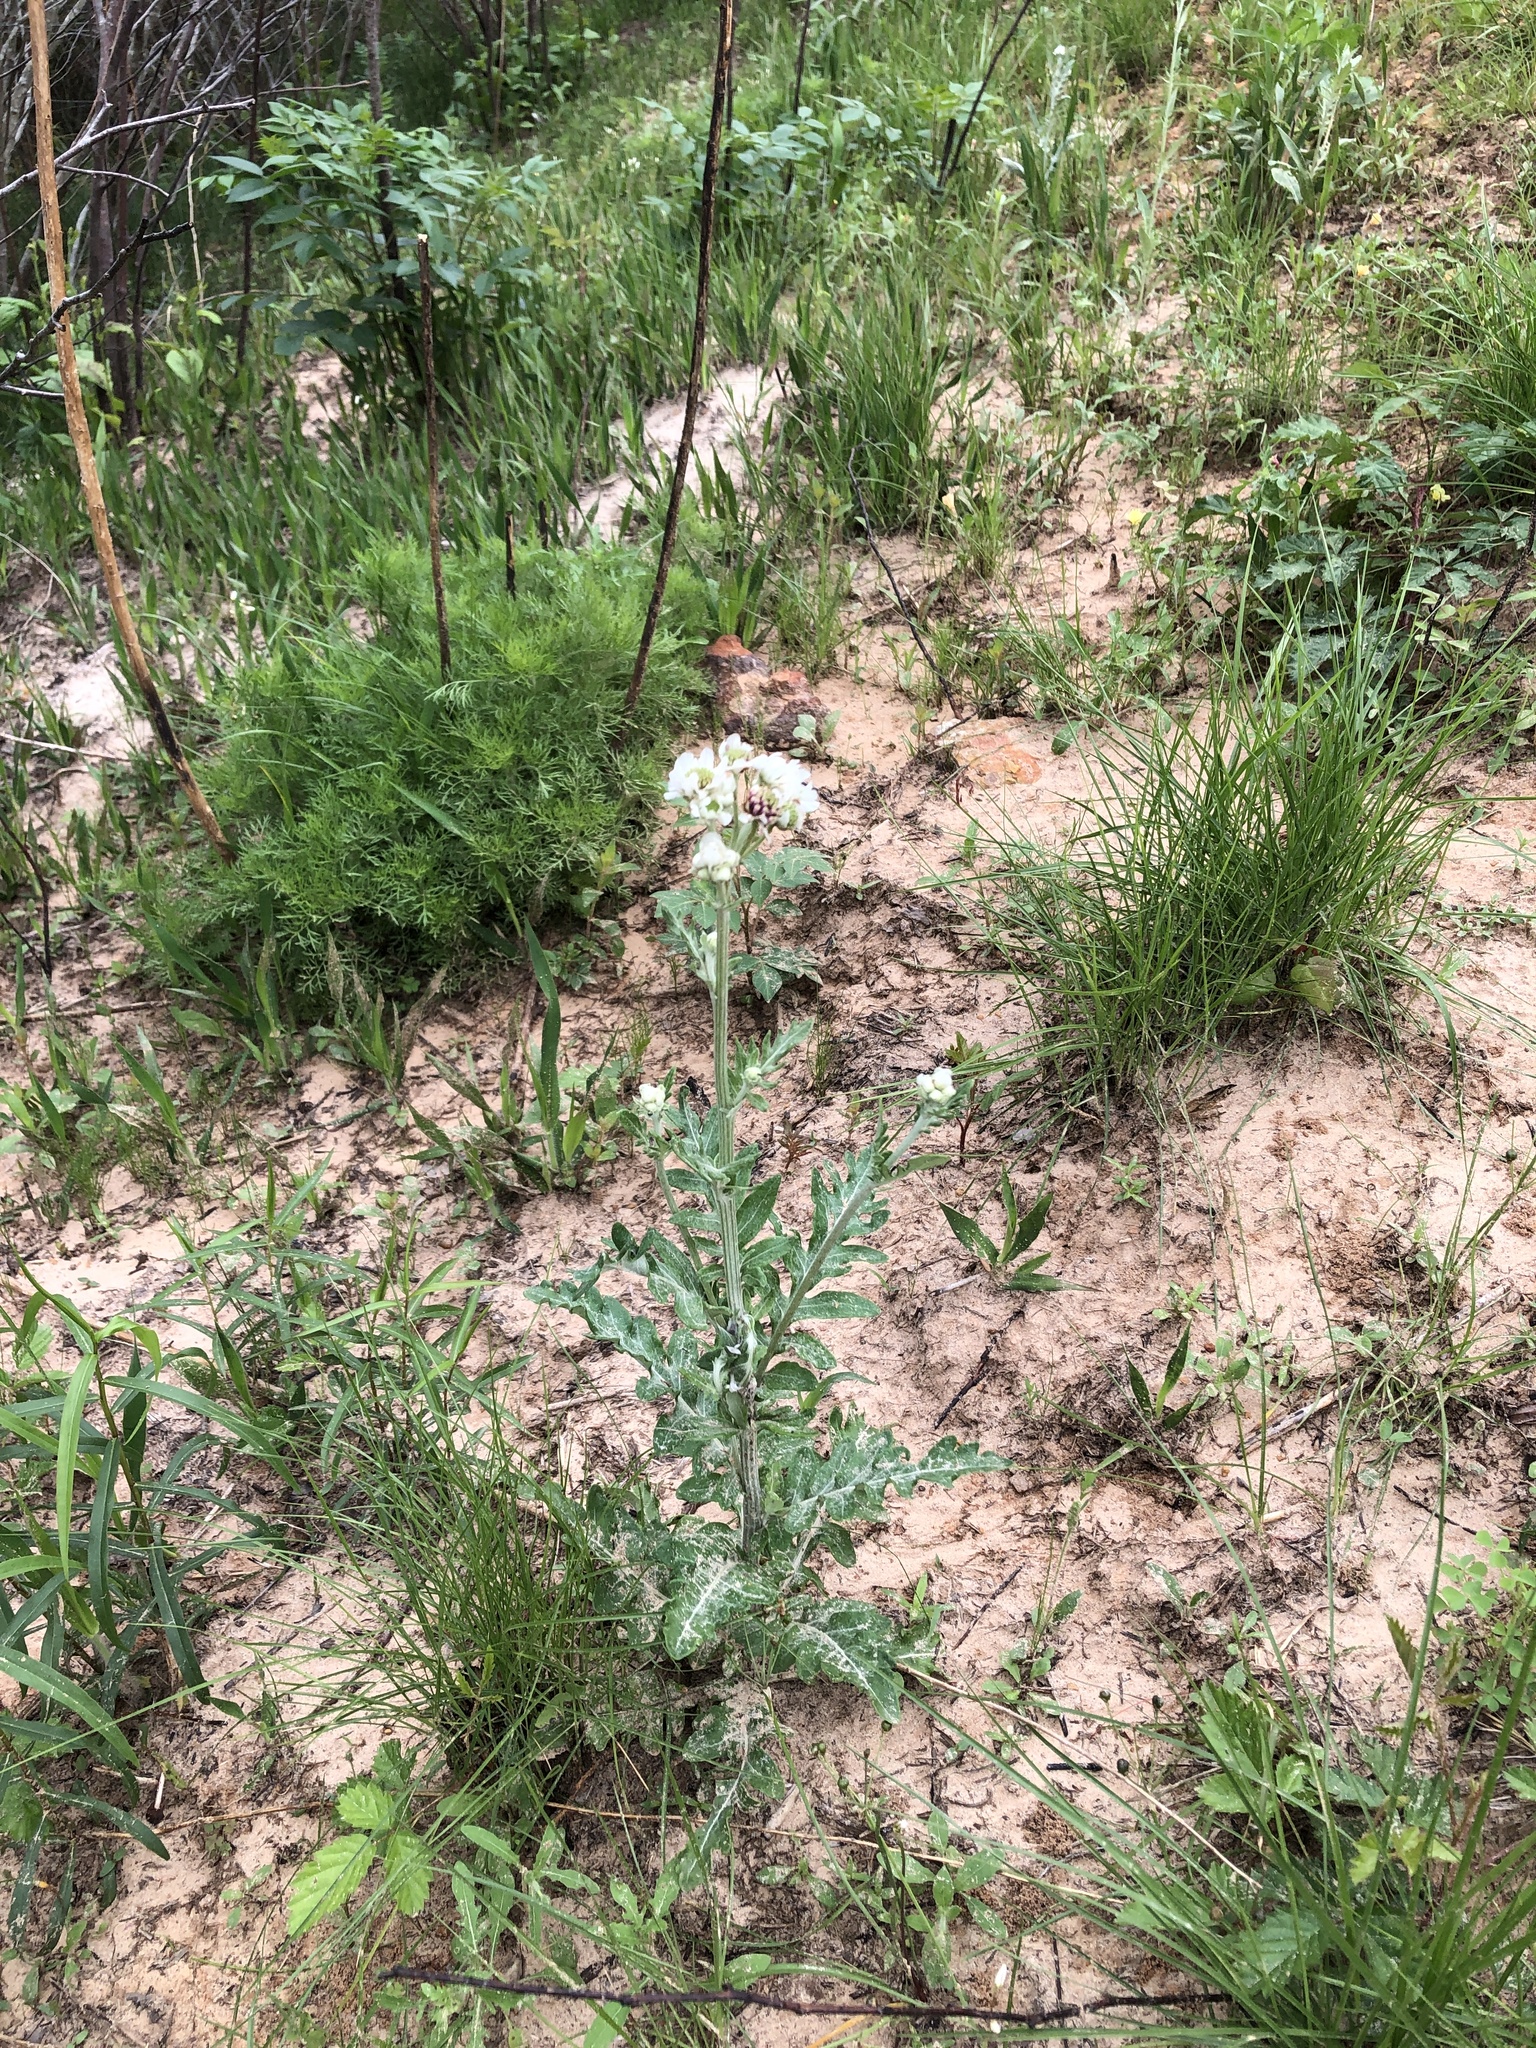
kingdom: Plantae
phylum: Tracheophyta
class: Magnoliopsida
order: Asterales
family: Asteraceae
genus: Hymenopappus
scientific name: Hymenopappus artemisiifolius
